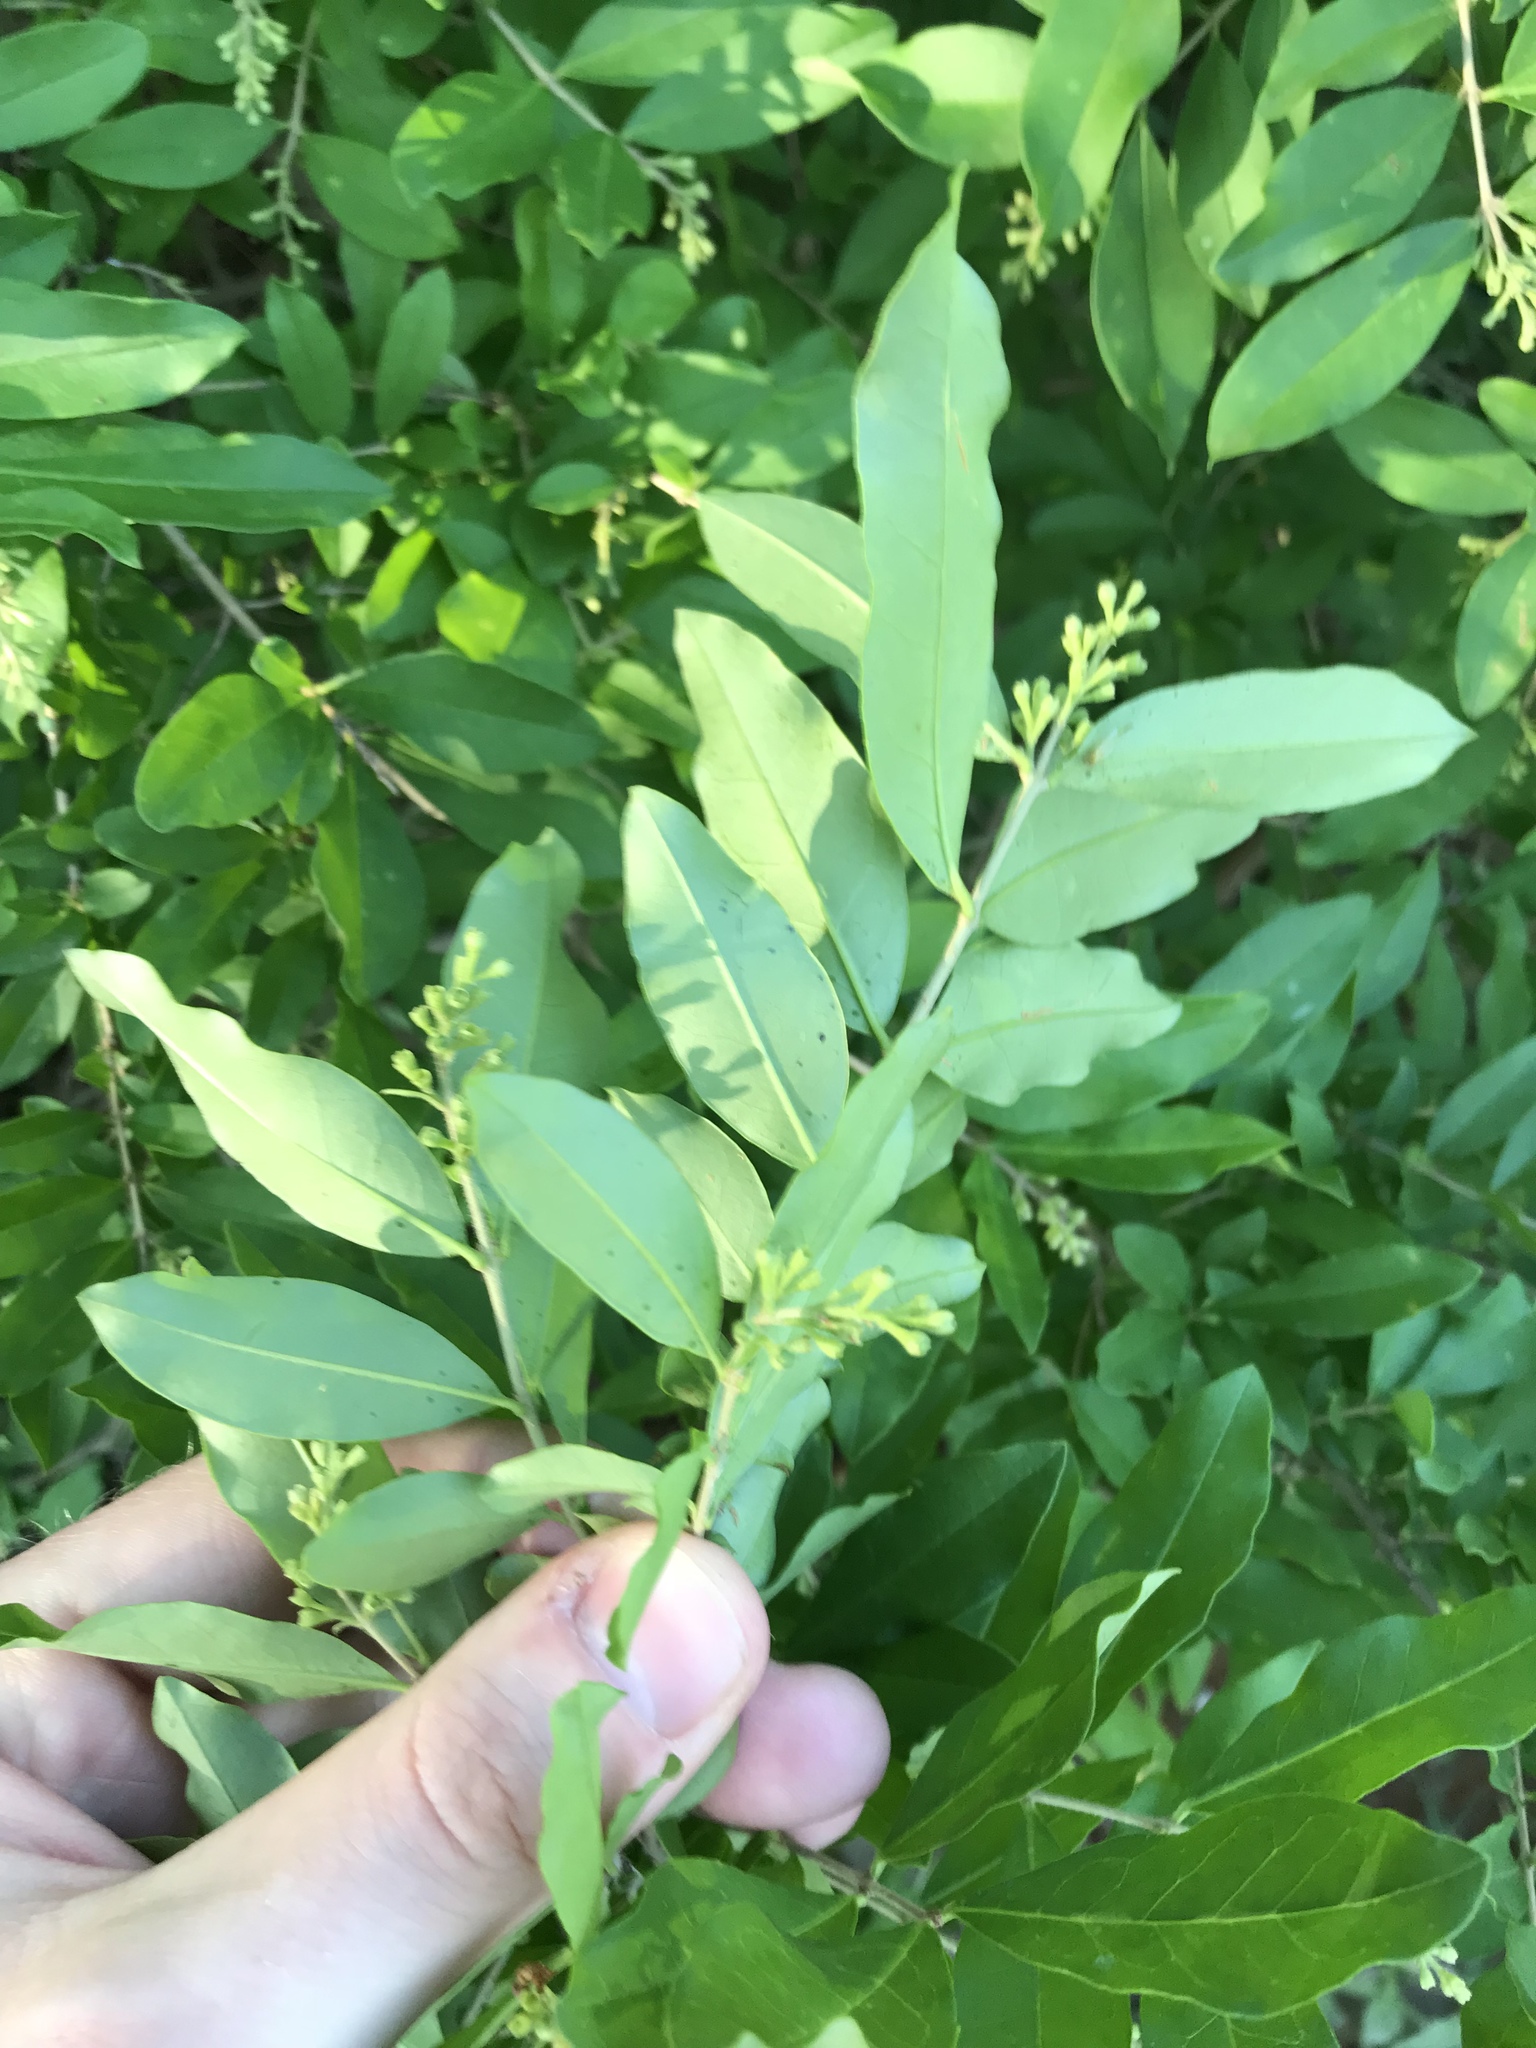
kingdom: Plantae
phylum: Tracheophyta
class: Magnoliopsida
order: Lamiales
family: Oleaceae
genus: Ligustrum
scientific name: Ligustrum
